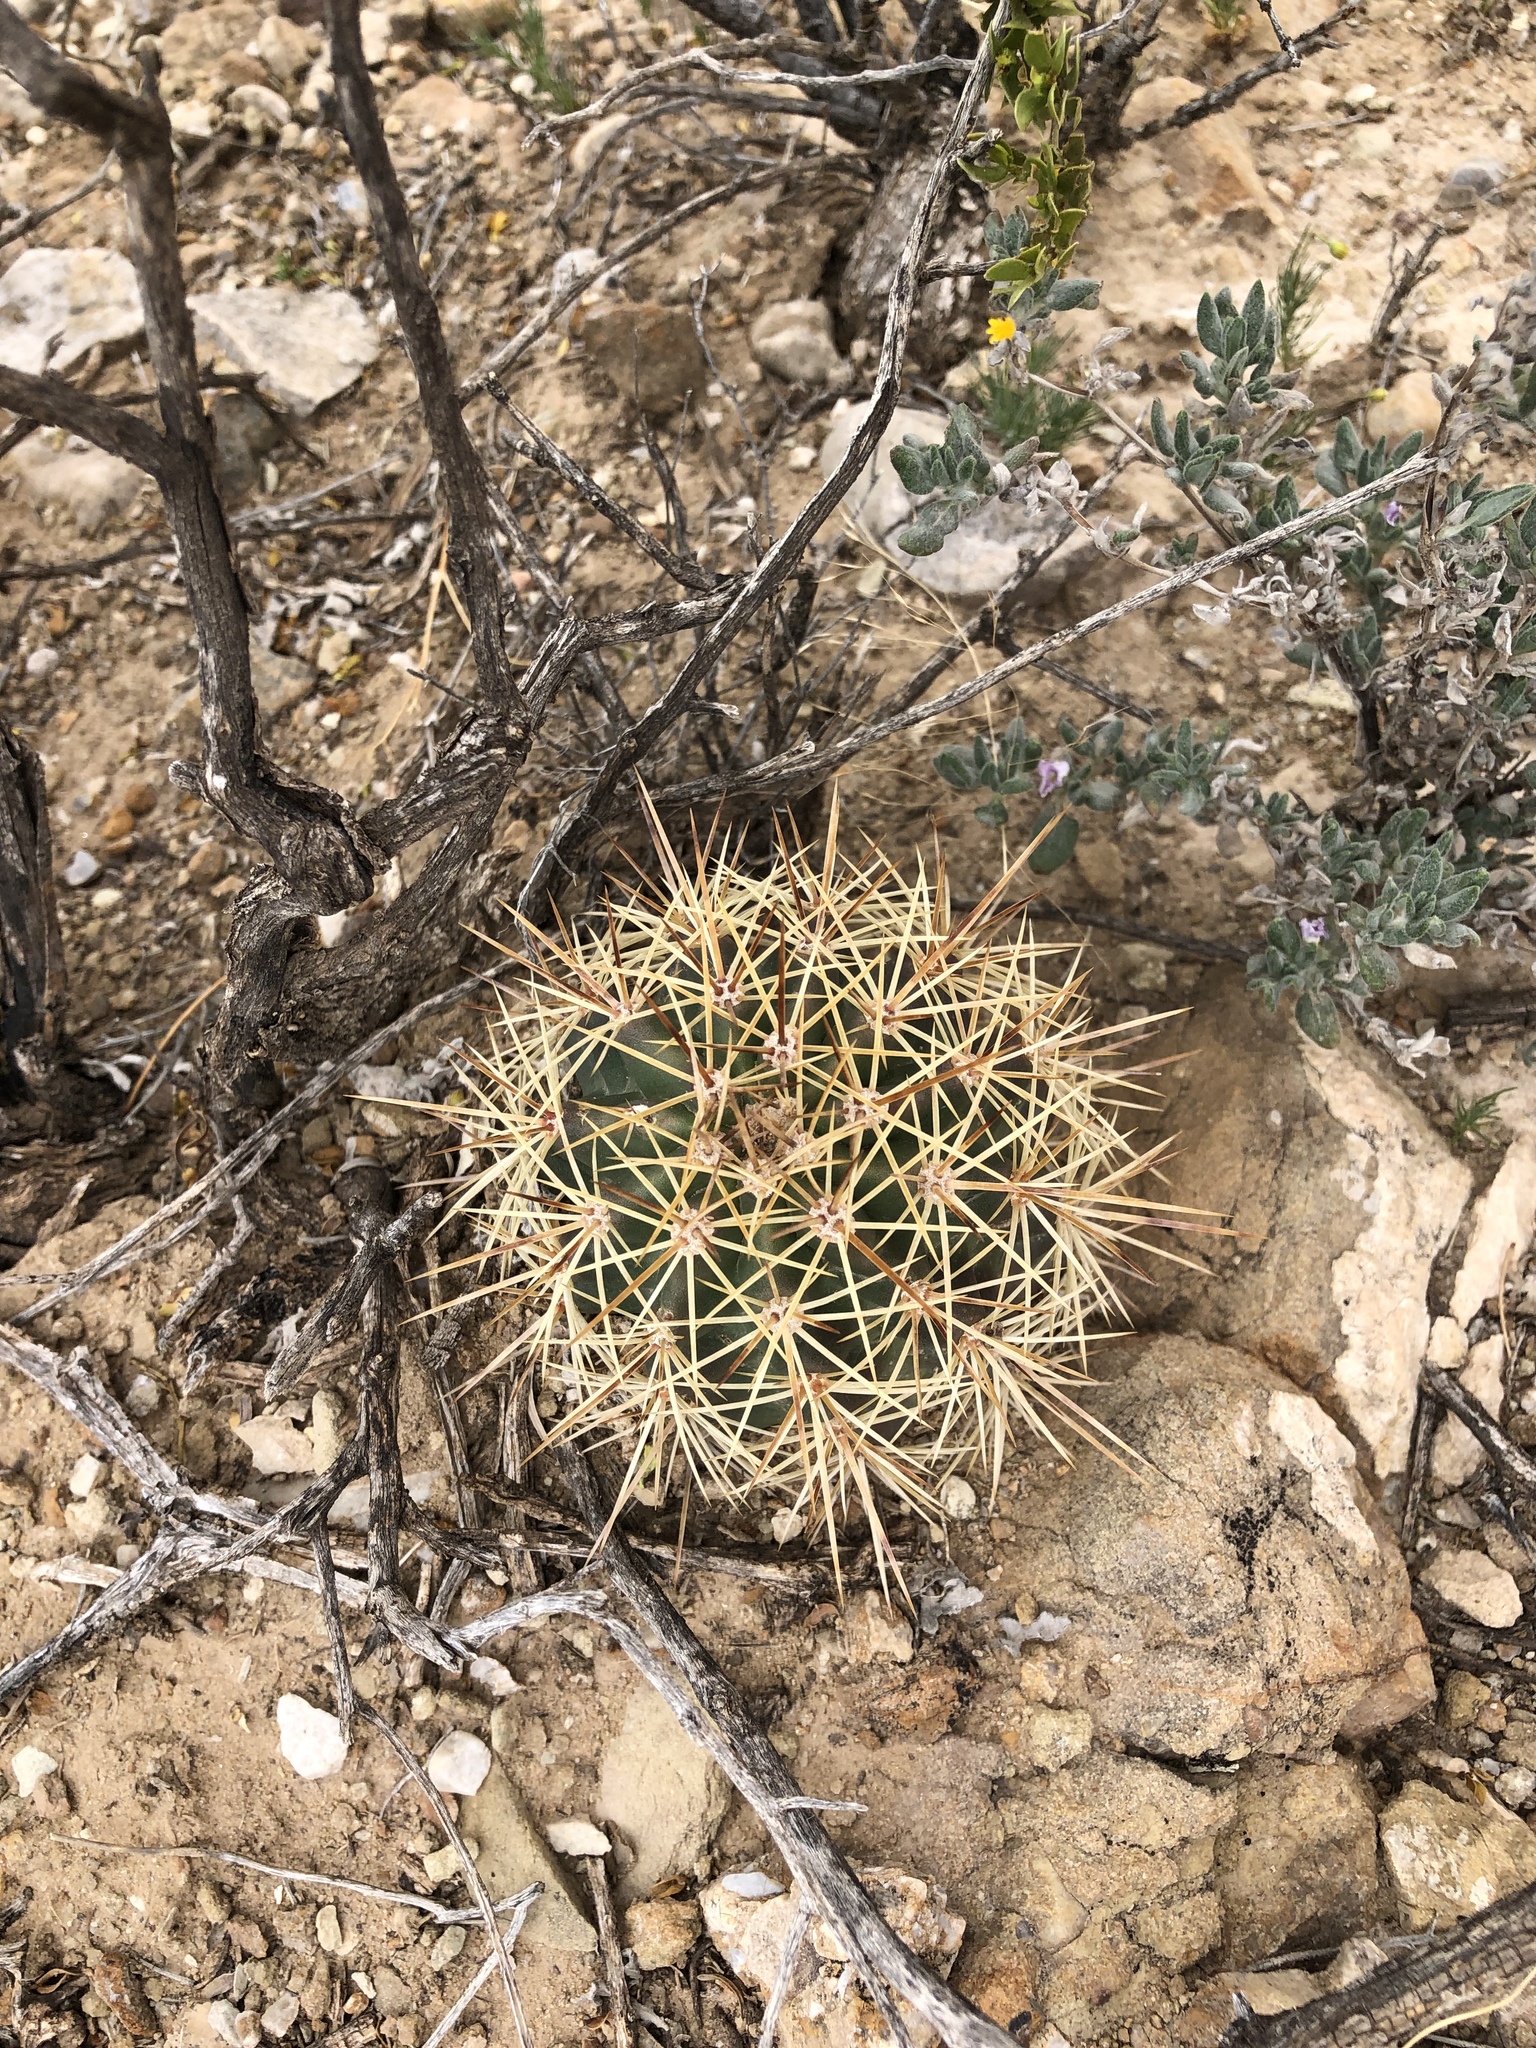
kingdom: Plantae
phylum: Tracheophyta
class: Magnoliopsida
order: Caryophyllales
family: Cactaceae
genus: Echinocereus
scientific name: Echinocereus coccineus
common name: Scarlet hedgehog cactus
